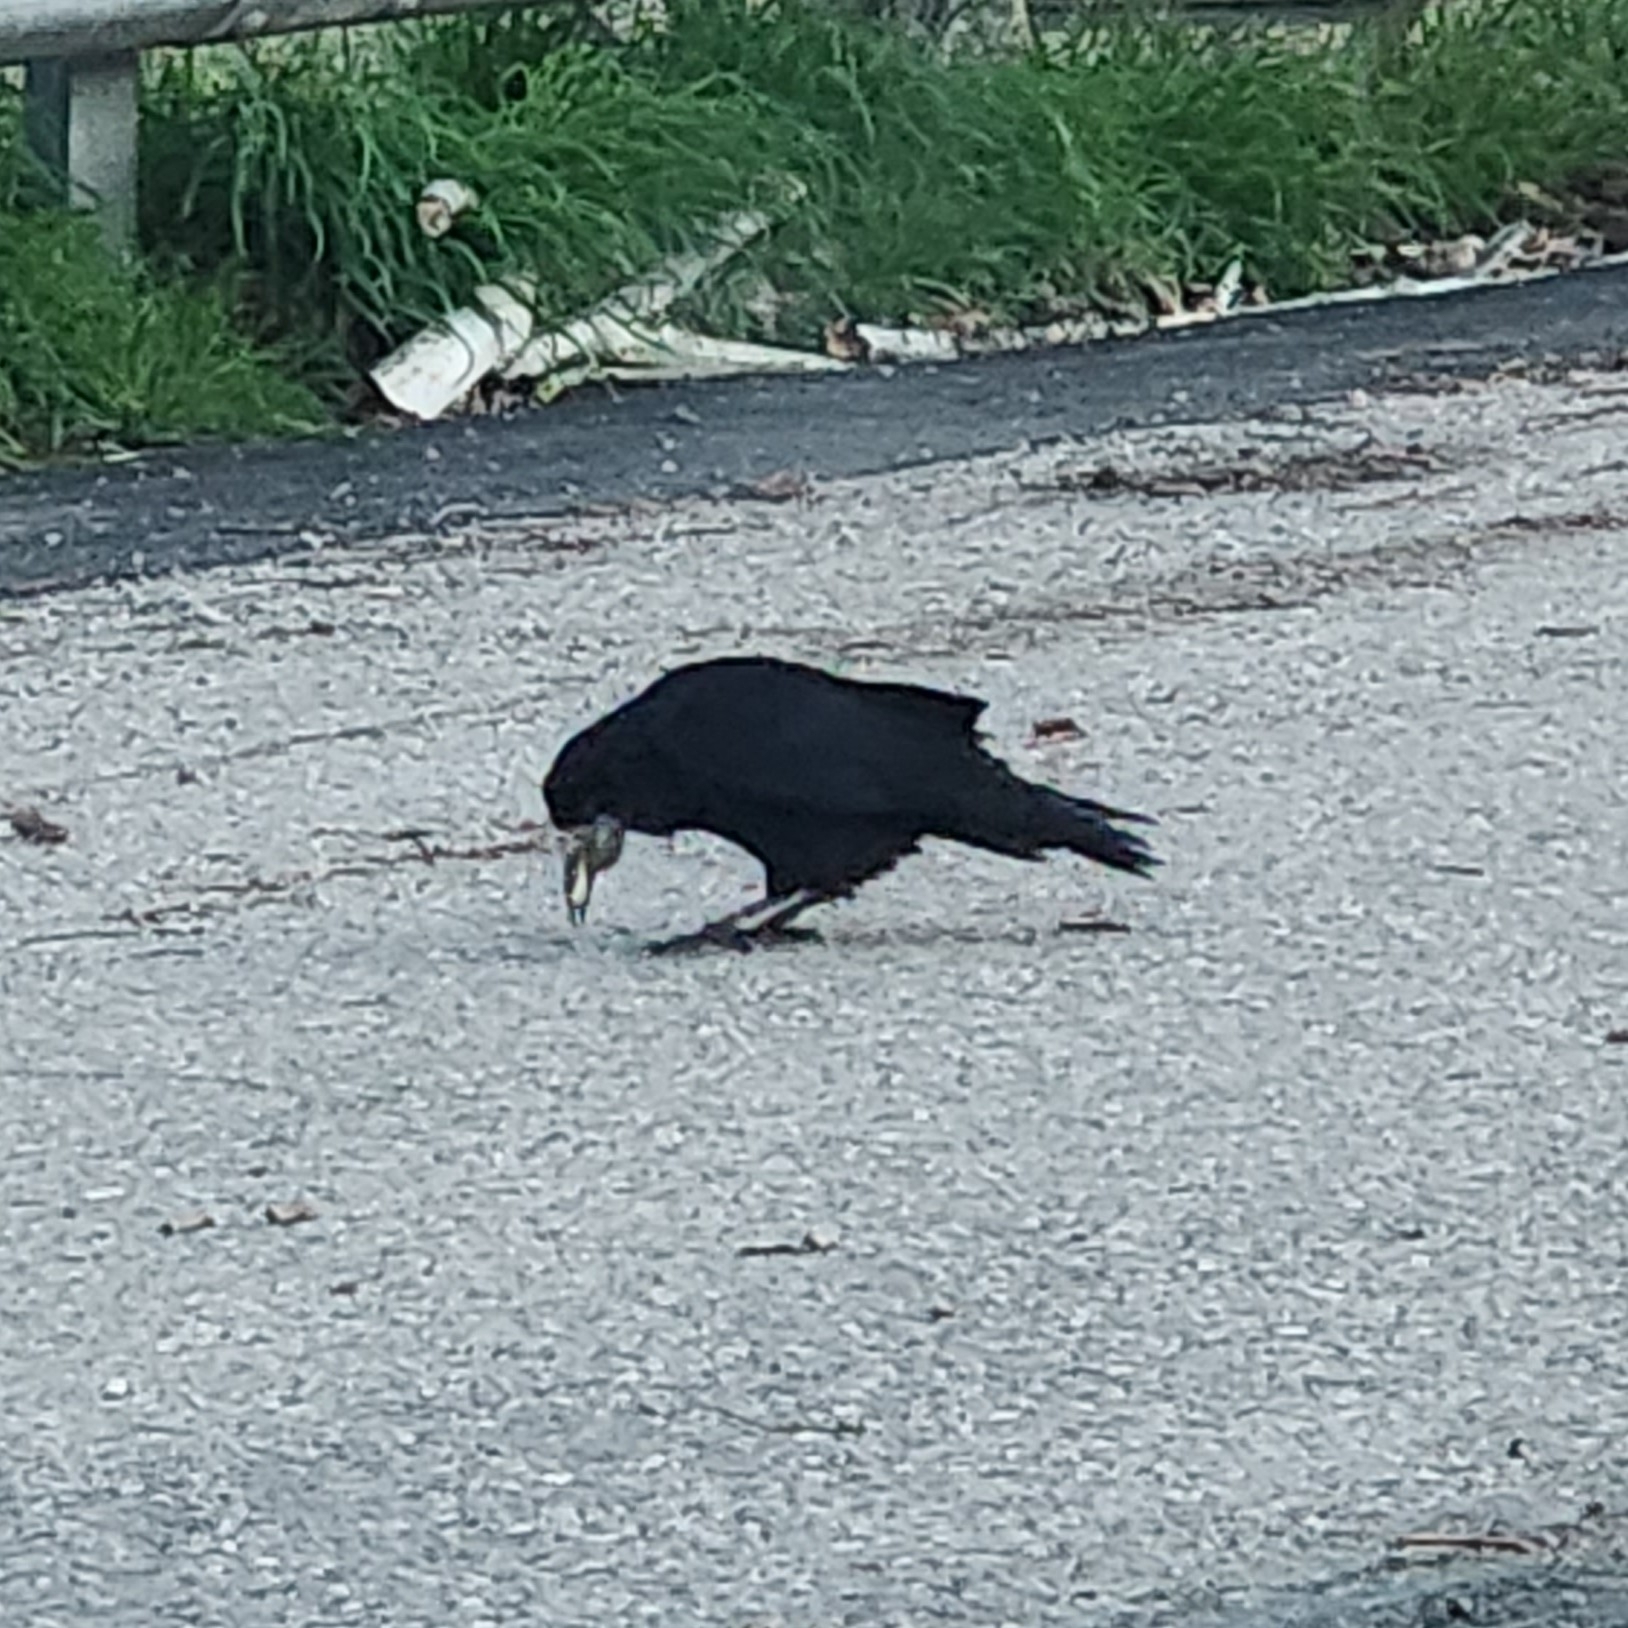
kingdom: Animalia
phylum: Chordata
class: Aves
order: Passeriformes
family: Corvidae
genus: Corvus
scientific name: Corvus frugilegus
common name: Rook
